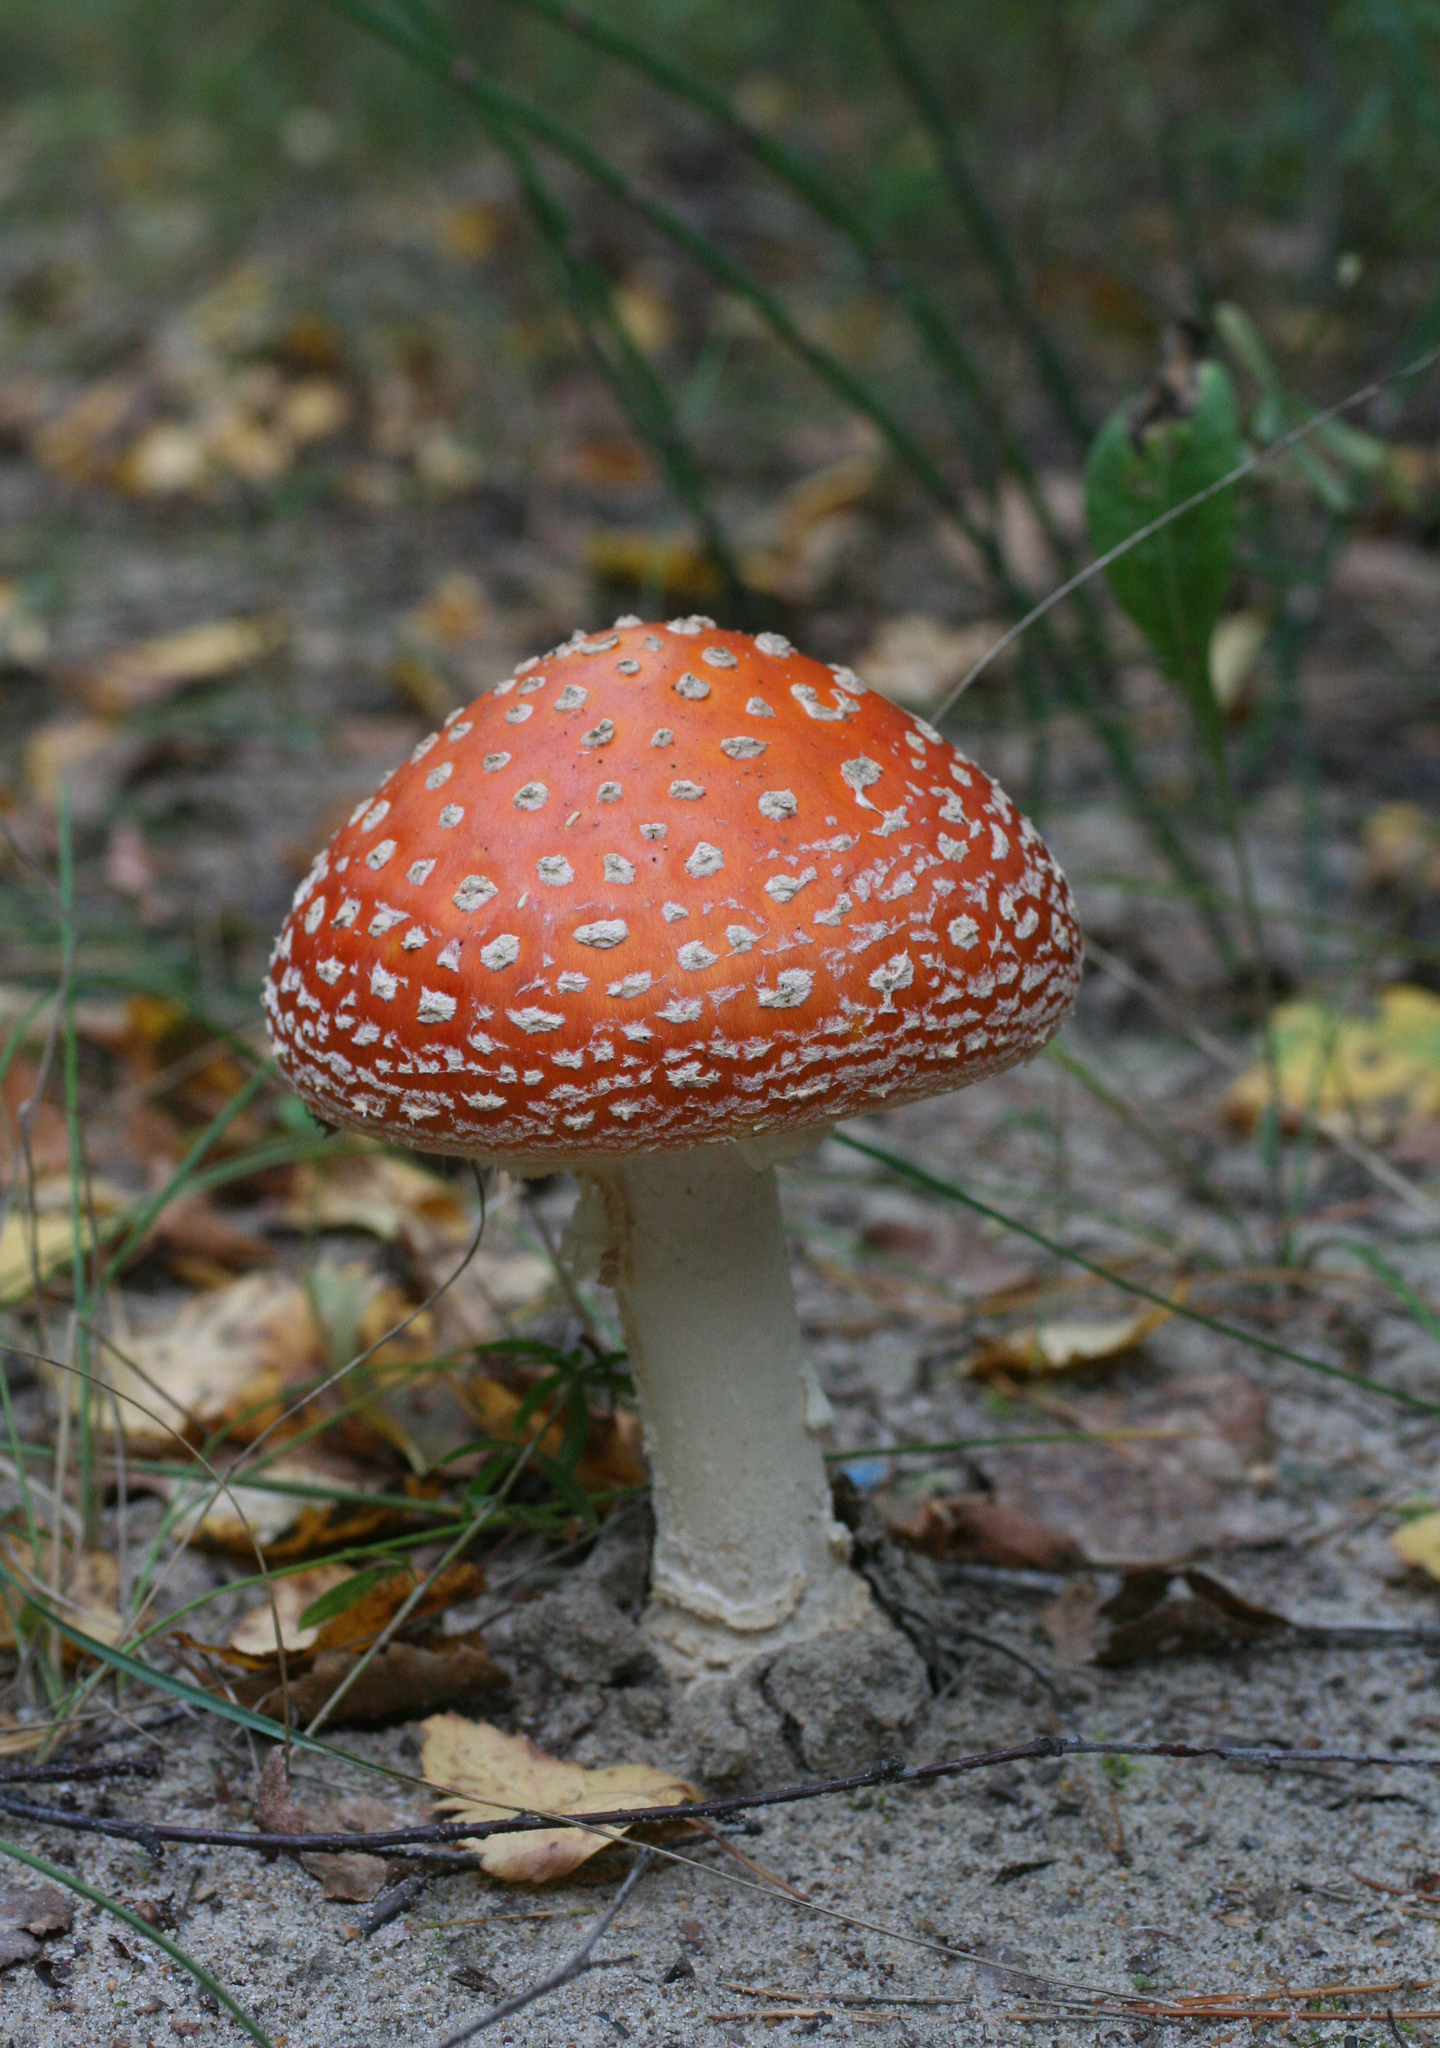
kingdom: Fungi
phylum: Basidiomycota
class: Agaricomycetes
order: Agaricales
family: Amanitaceae
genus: Amanita
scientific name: Amanita muscaria
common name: Fly agaric
